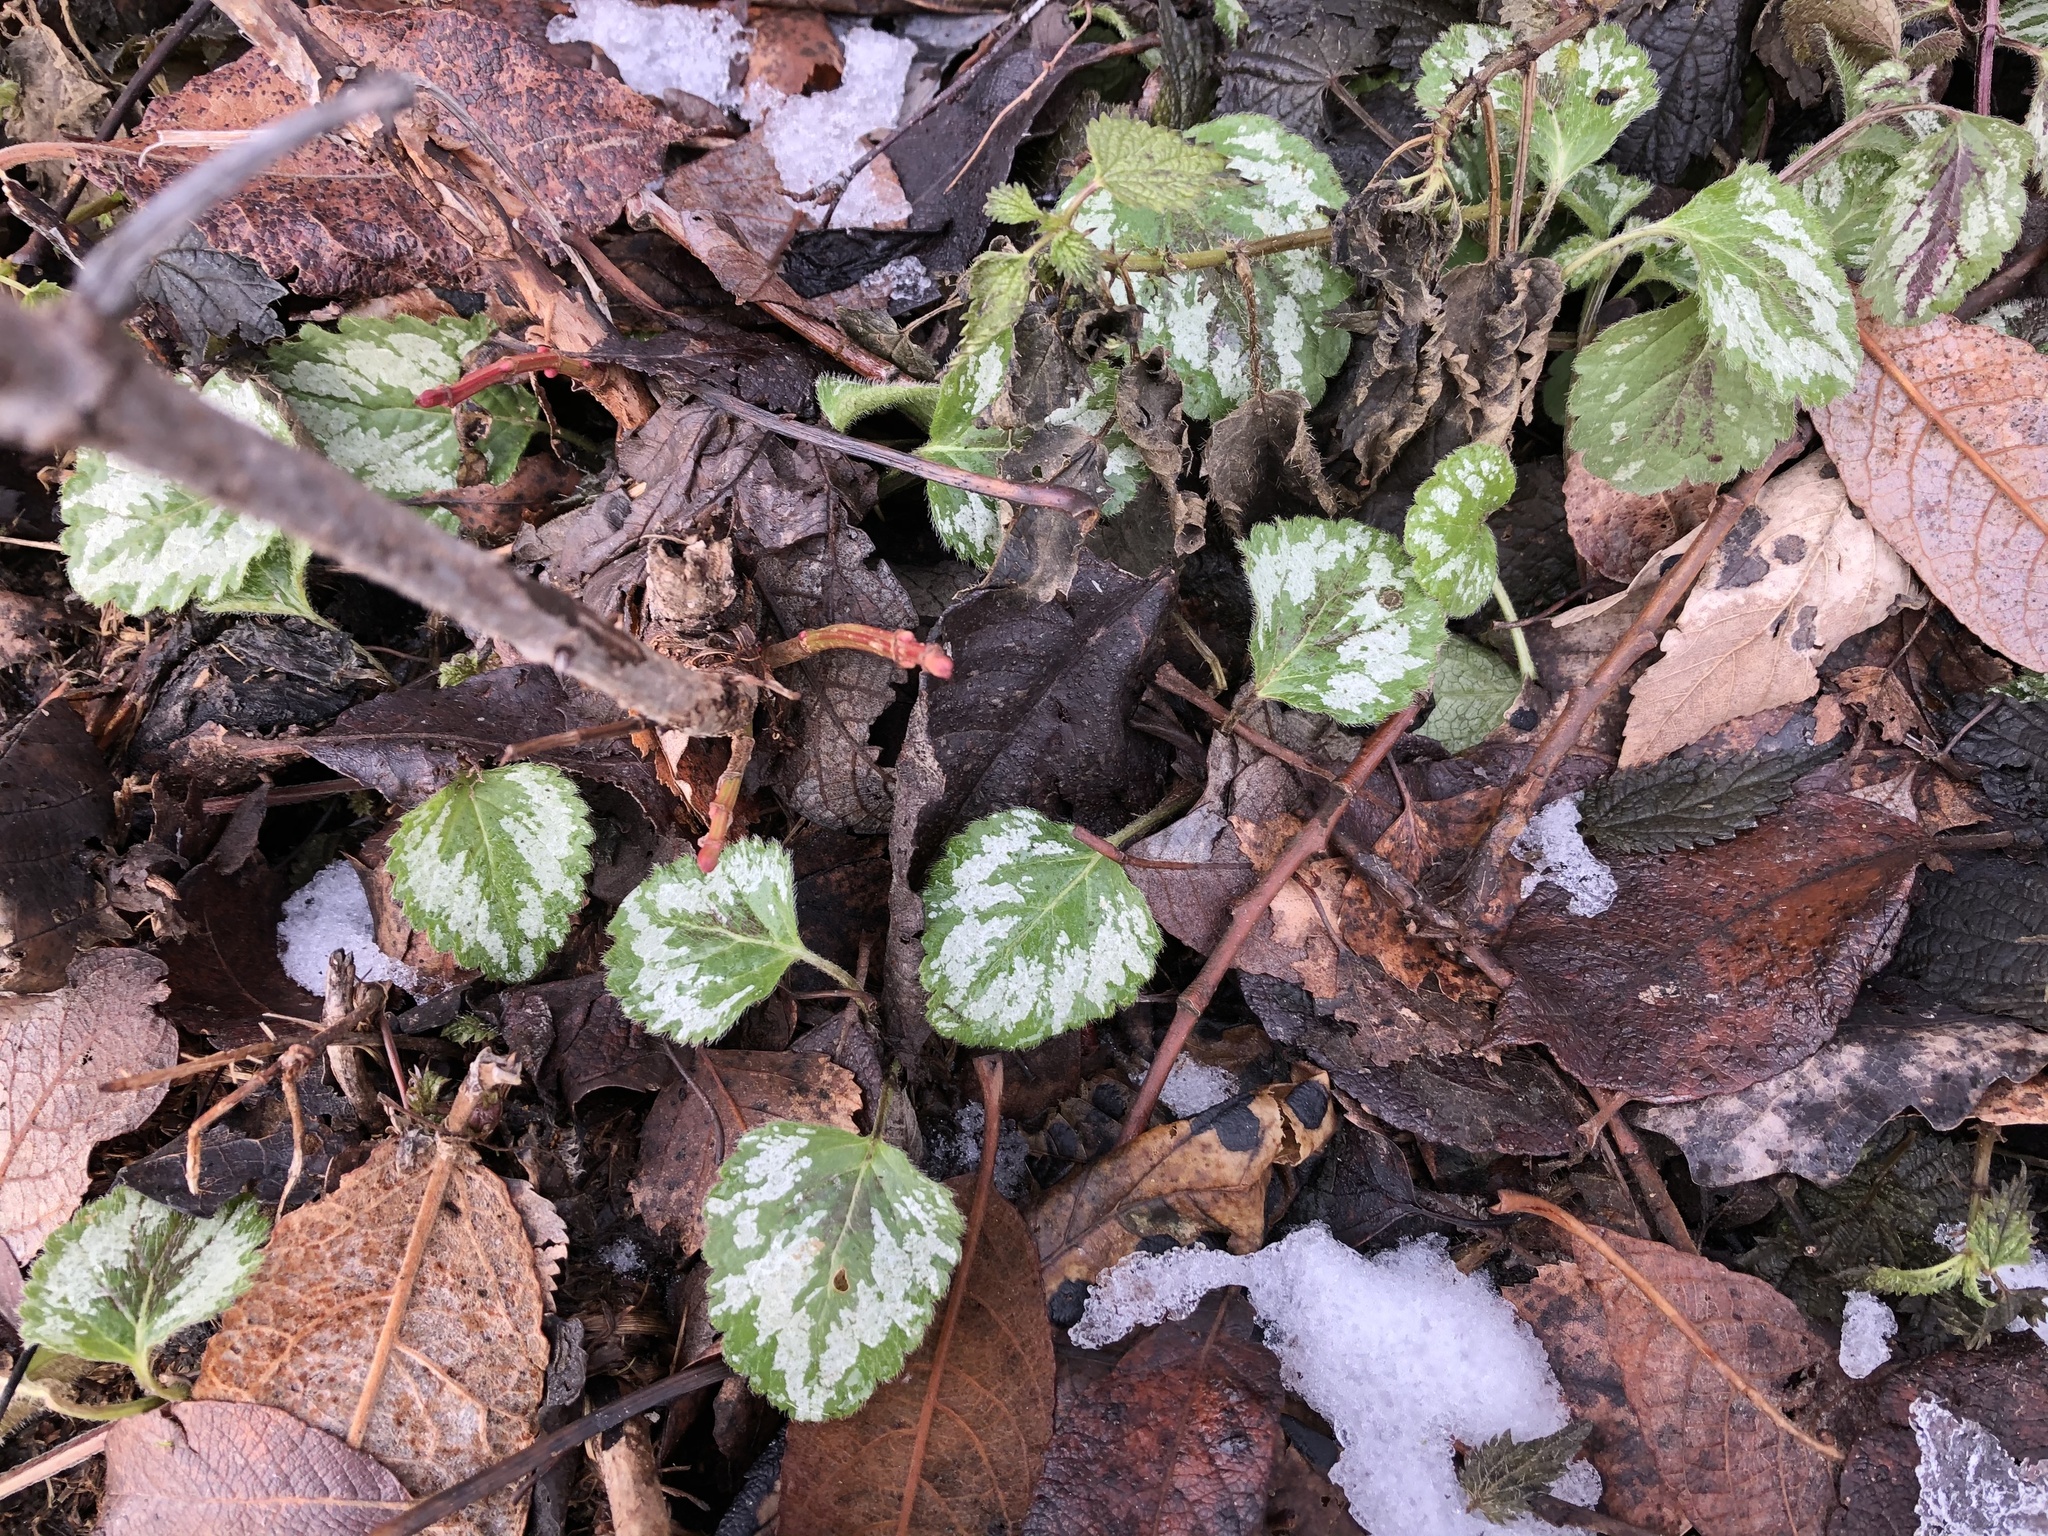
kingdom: Plantae
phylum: Tracheophyta
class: Magnoliopsida
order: Lamiales
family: Lamiaceae
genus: Lamium
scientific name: Lamium galeobdolon
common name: Yellow archangel
